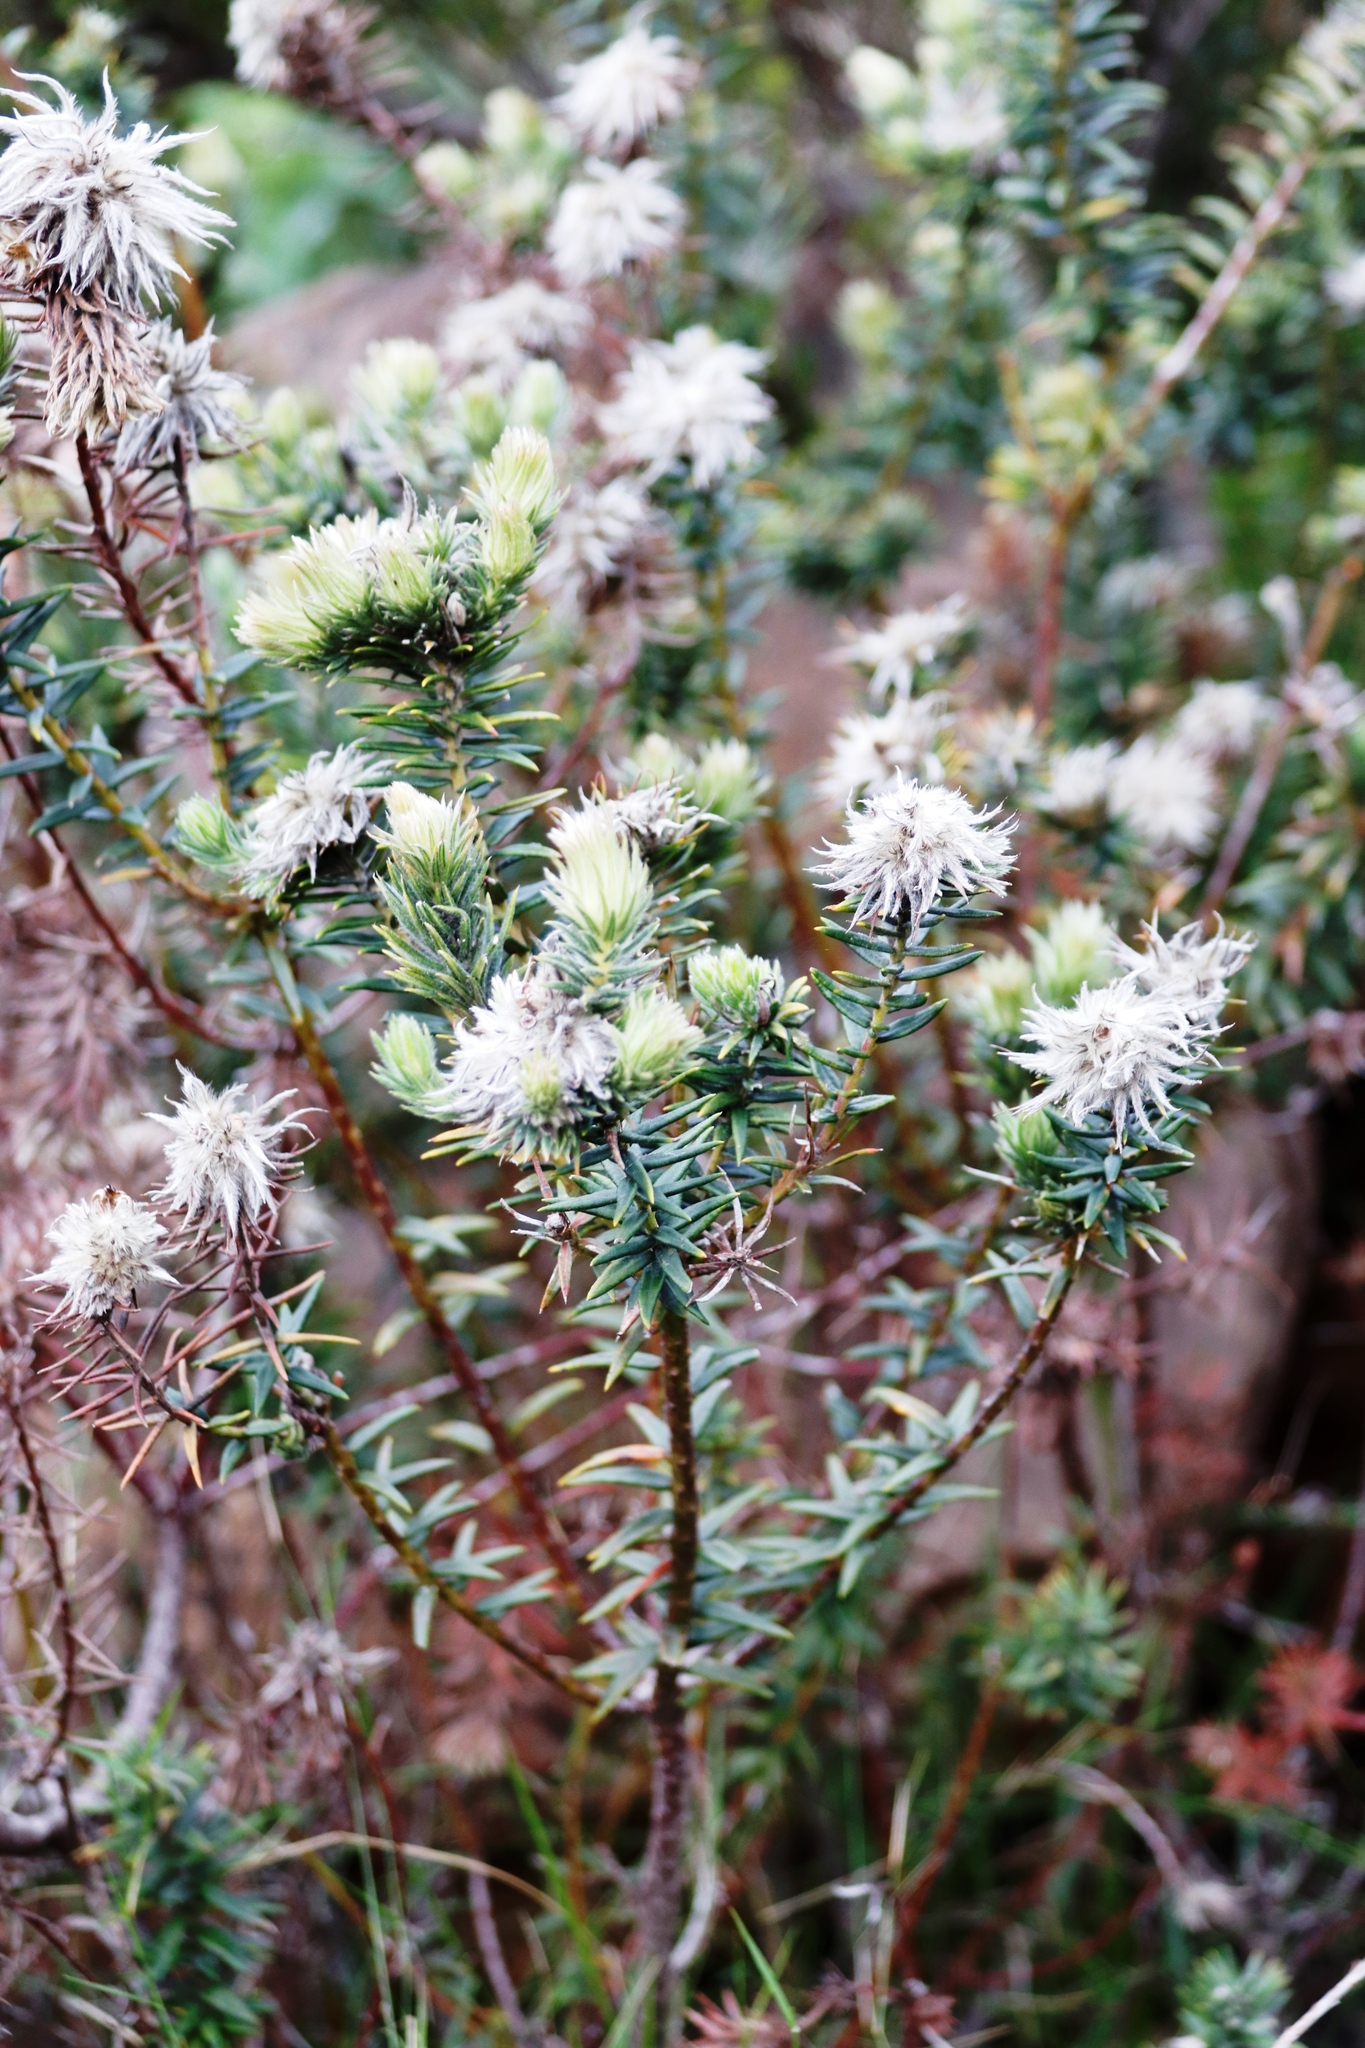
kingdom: Plantae
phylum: Tracheophyta
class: Magnoliopsida
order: Rosales
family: Rhamnaceae
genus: Phylica
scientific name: Phylica plumosa
